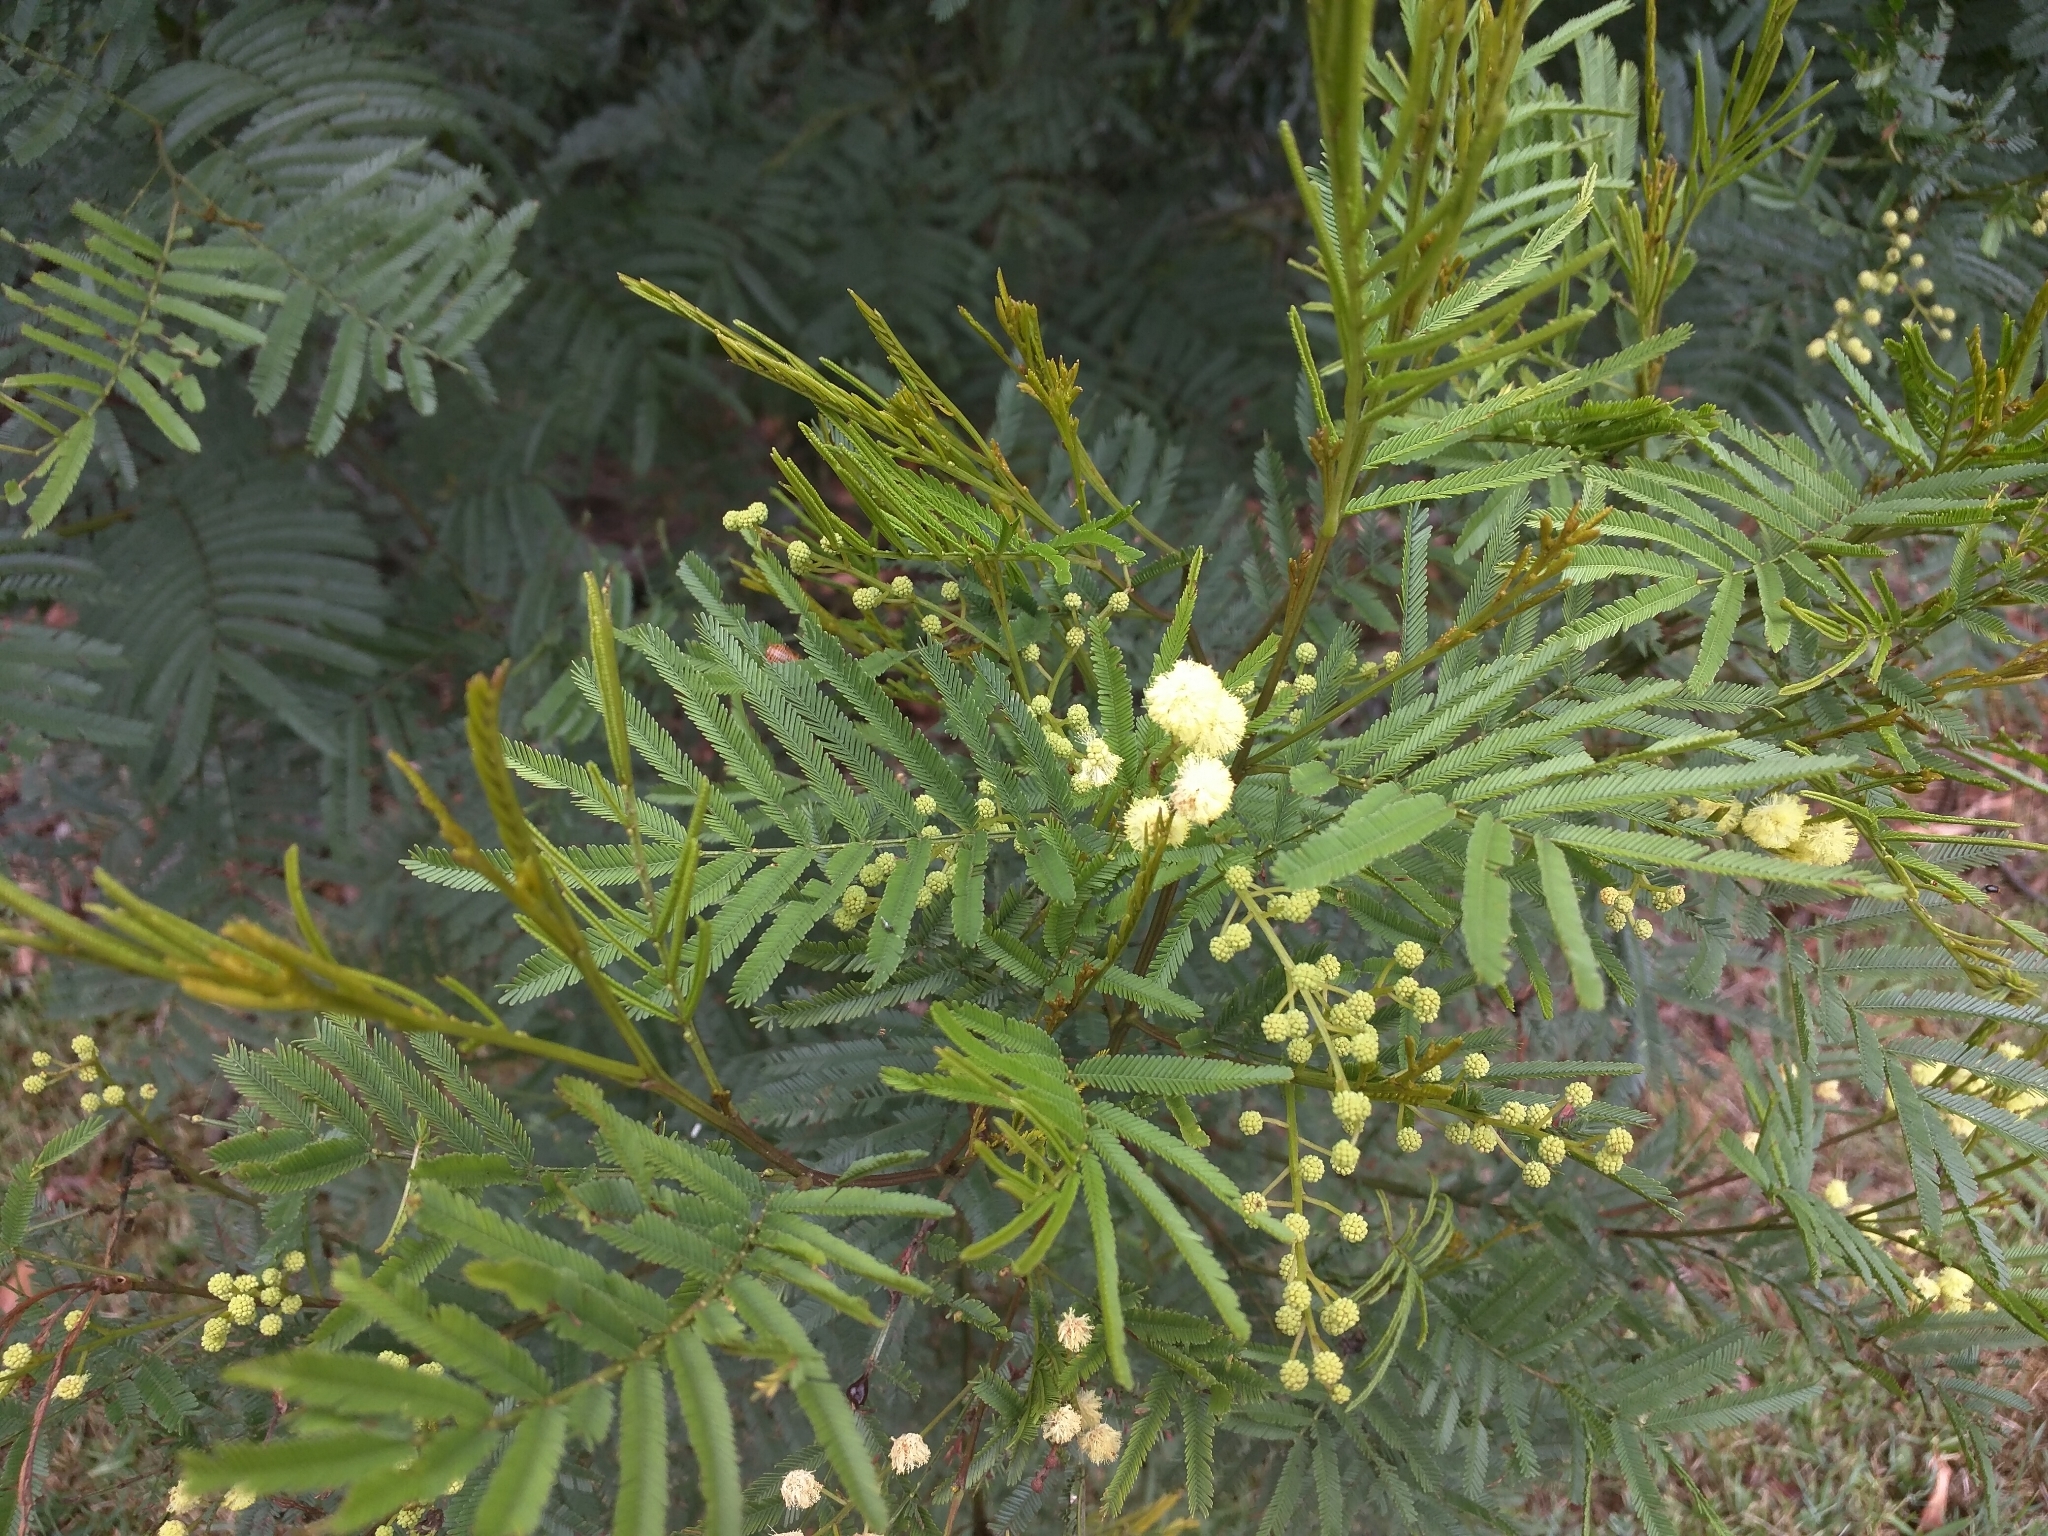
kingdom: Plantae
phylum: Tracheophyta
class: Magnoliopsida
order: Fabales
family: Fabaceae
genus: Acacia
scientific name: Acacia mearnsii
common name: Black wattle
